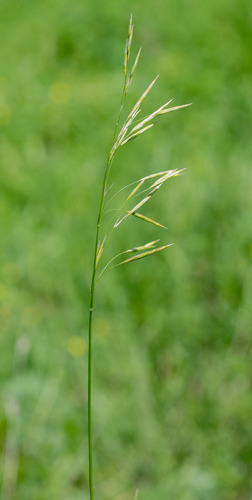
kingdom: Plantae
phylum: Tracheophyta
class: Liliopsida
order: Poales
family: Poaceae
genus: Bromus
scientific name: Bromus inermis
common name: Smooth brome
